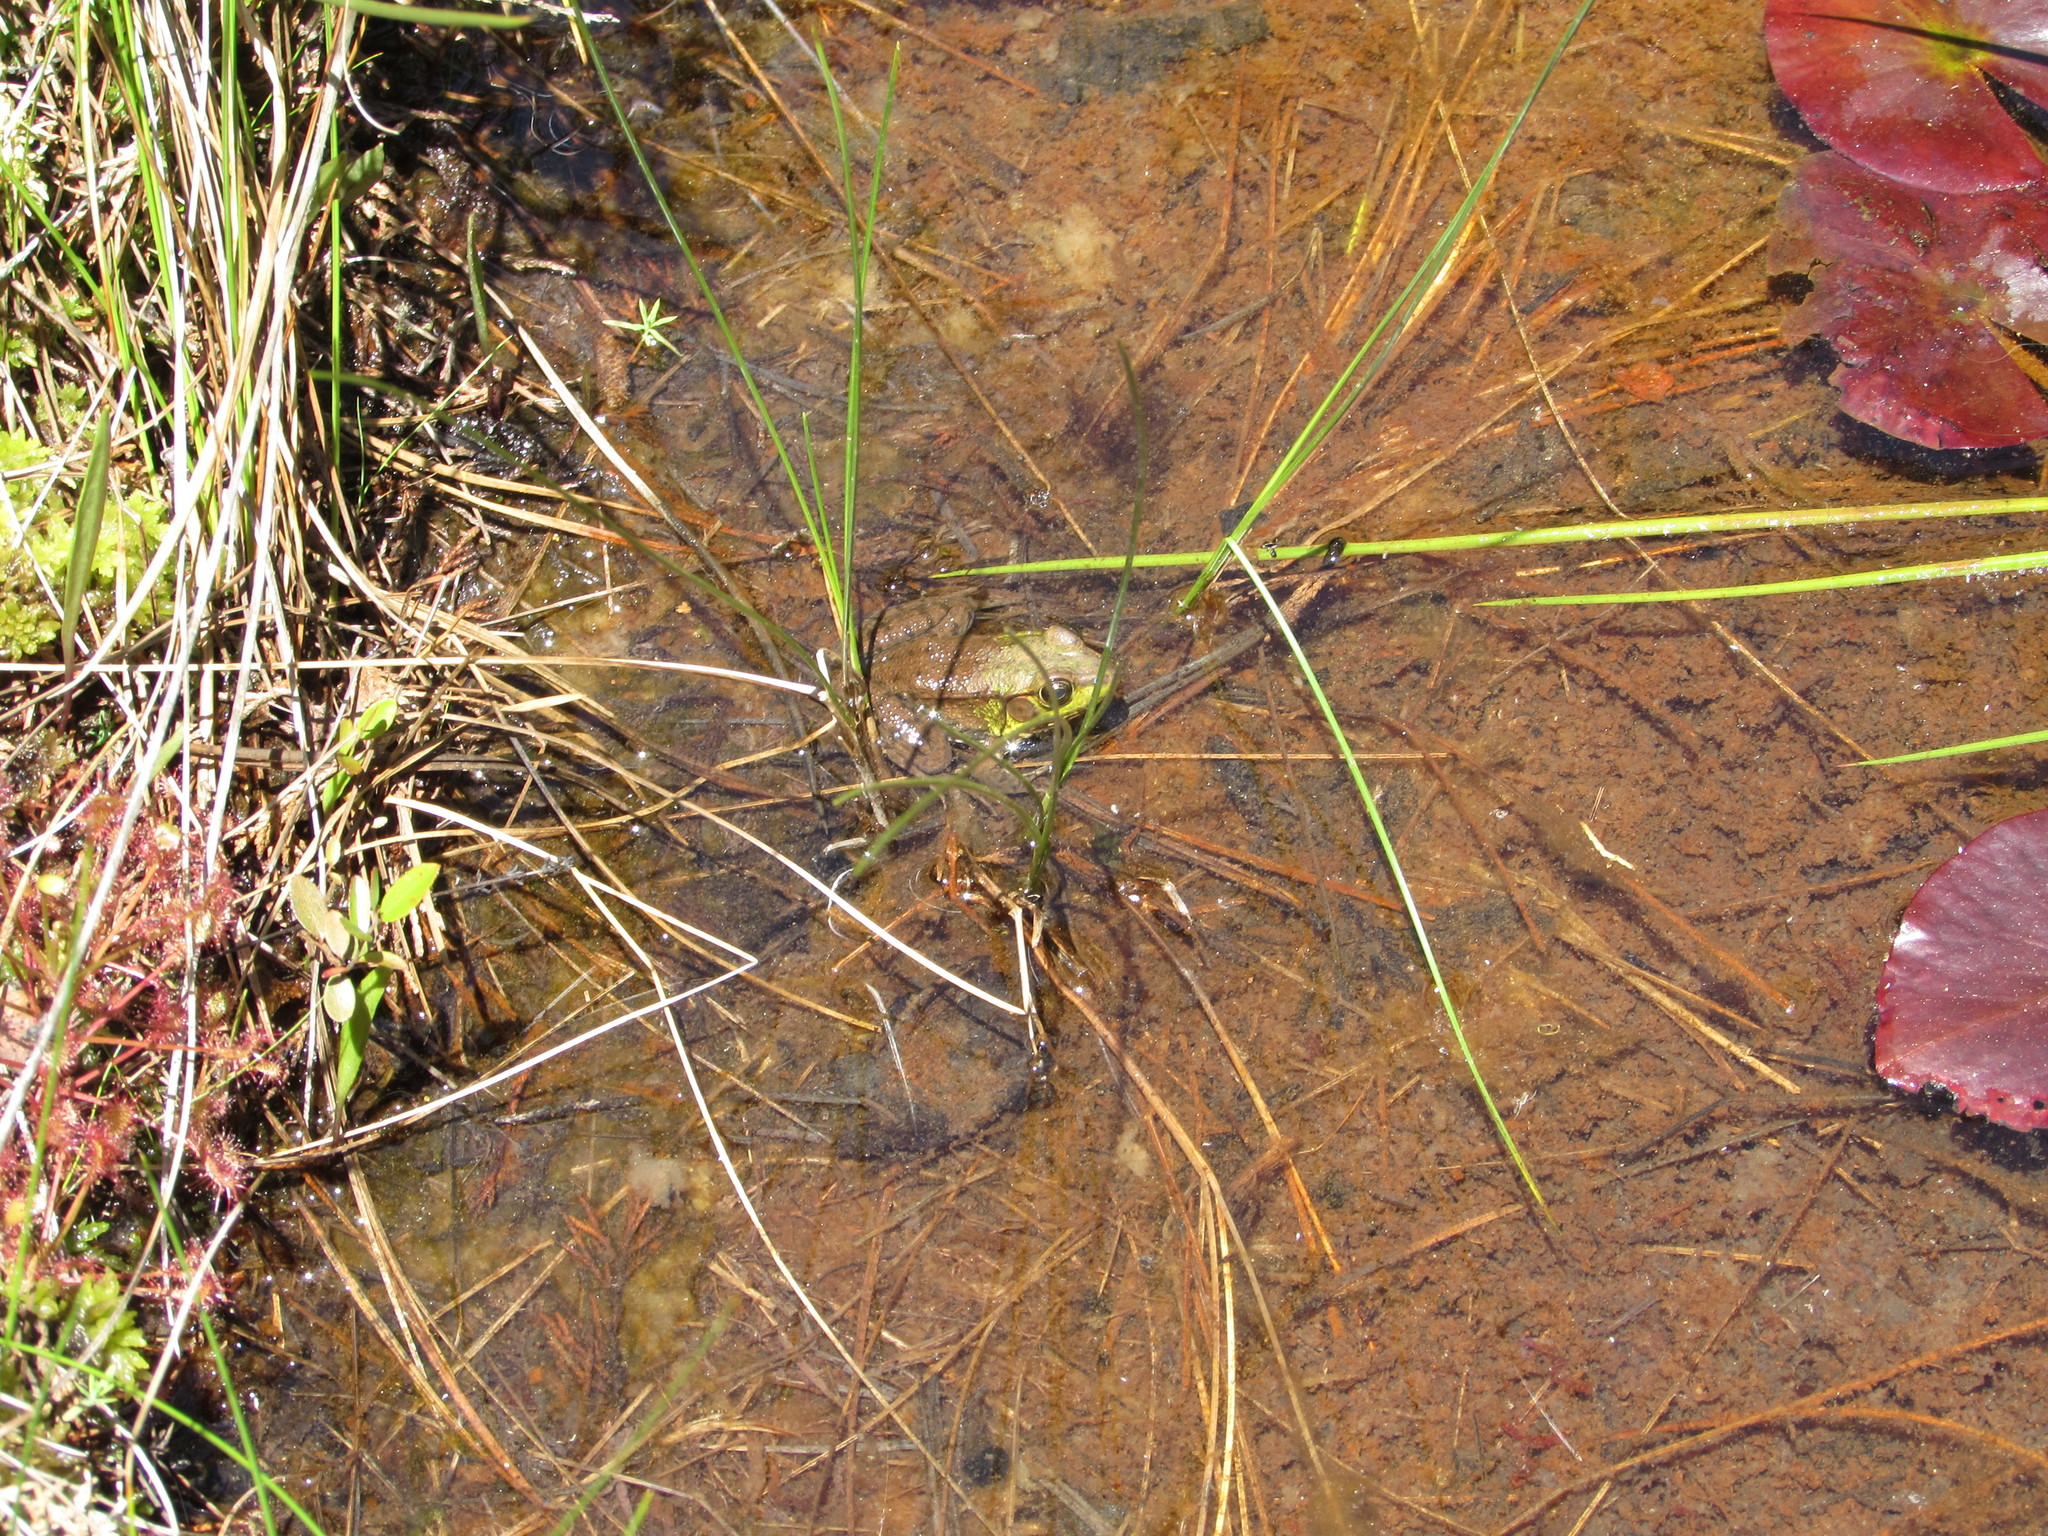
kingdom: Animalia
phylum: Chordata
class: Amphibia
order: Anura
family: Ranidae
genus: Lithobates
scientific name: Lithobates clamitans
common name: Green frog
